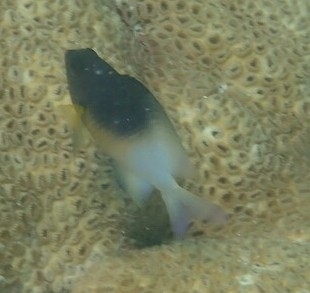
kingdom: Animalia
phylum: Chordata
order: Perciformes
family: Pomacentridae
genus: Stegastes
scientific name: Stegastes partitus
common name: Bicolor damselfish
